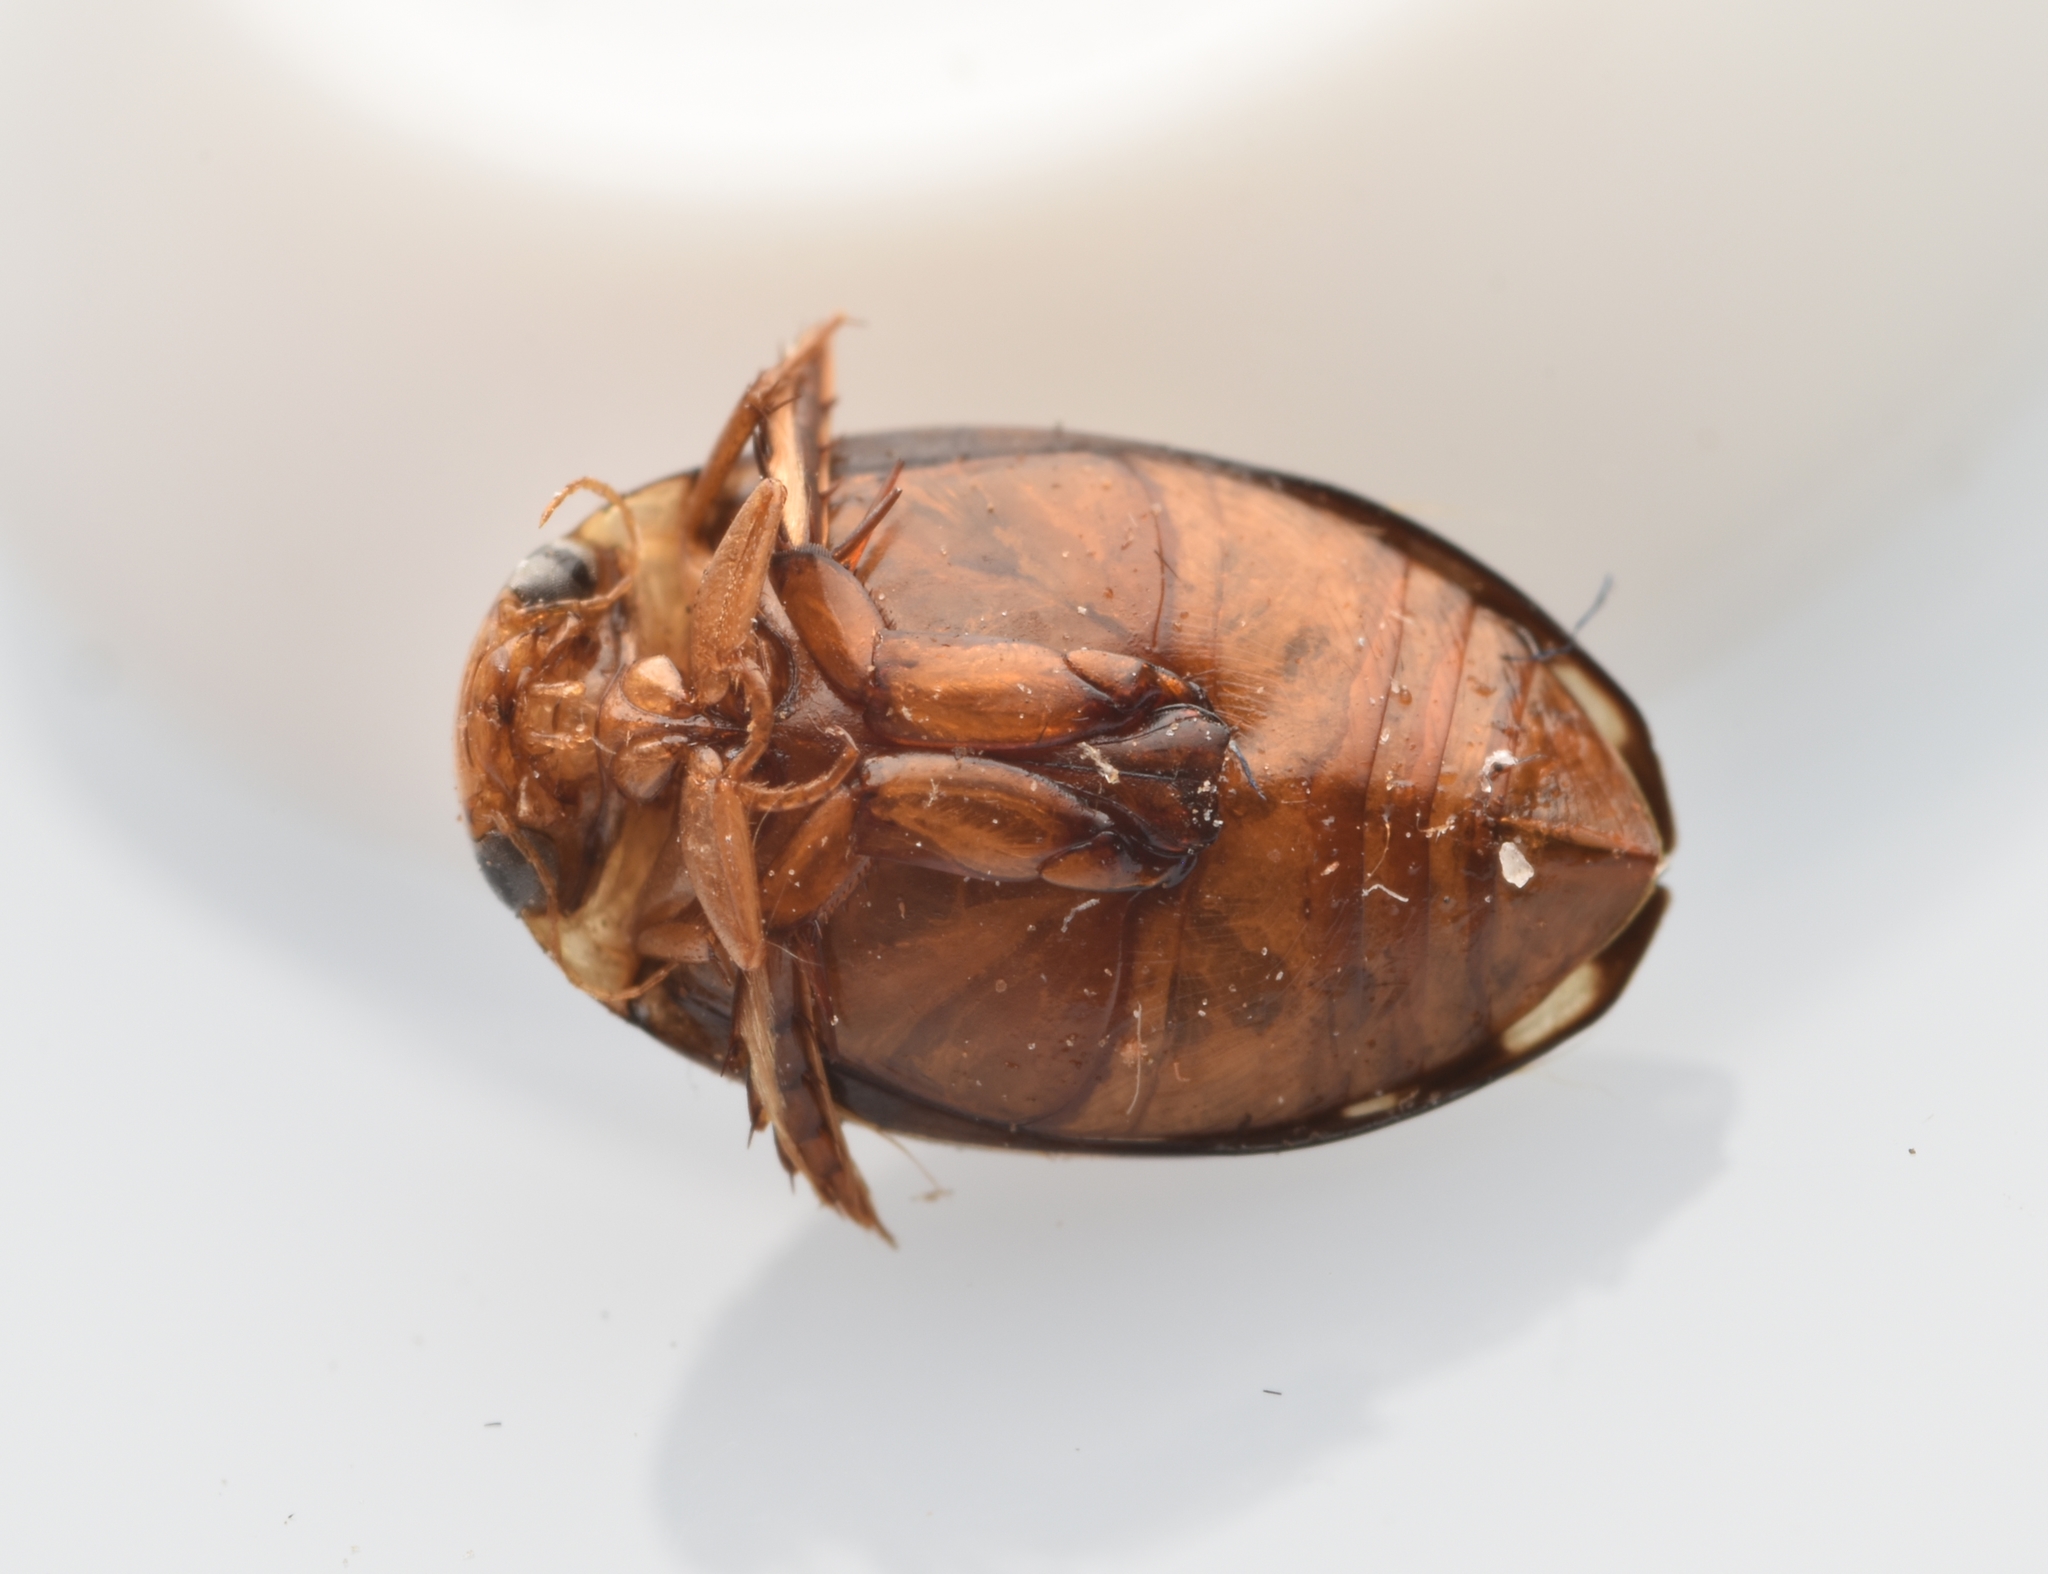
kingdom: Animalia
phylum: Arthropoda
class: Insecta
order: Coleoptera
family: Dytiscidae
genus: Laccophilus
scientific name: Laccophilus pictus
